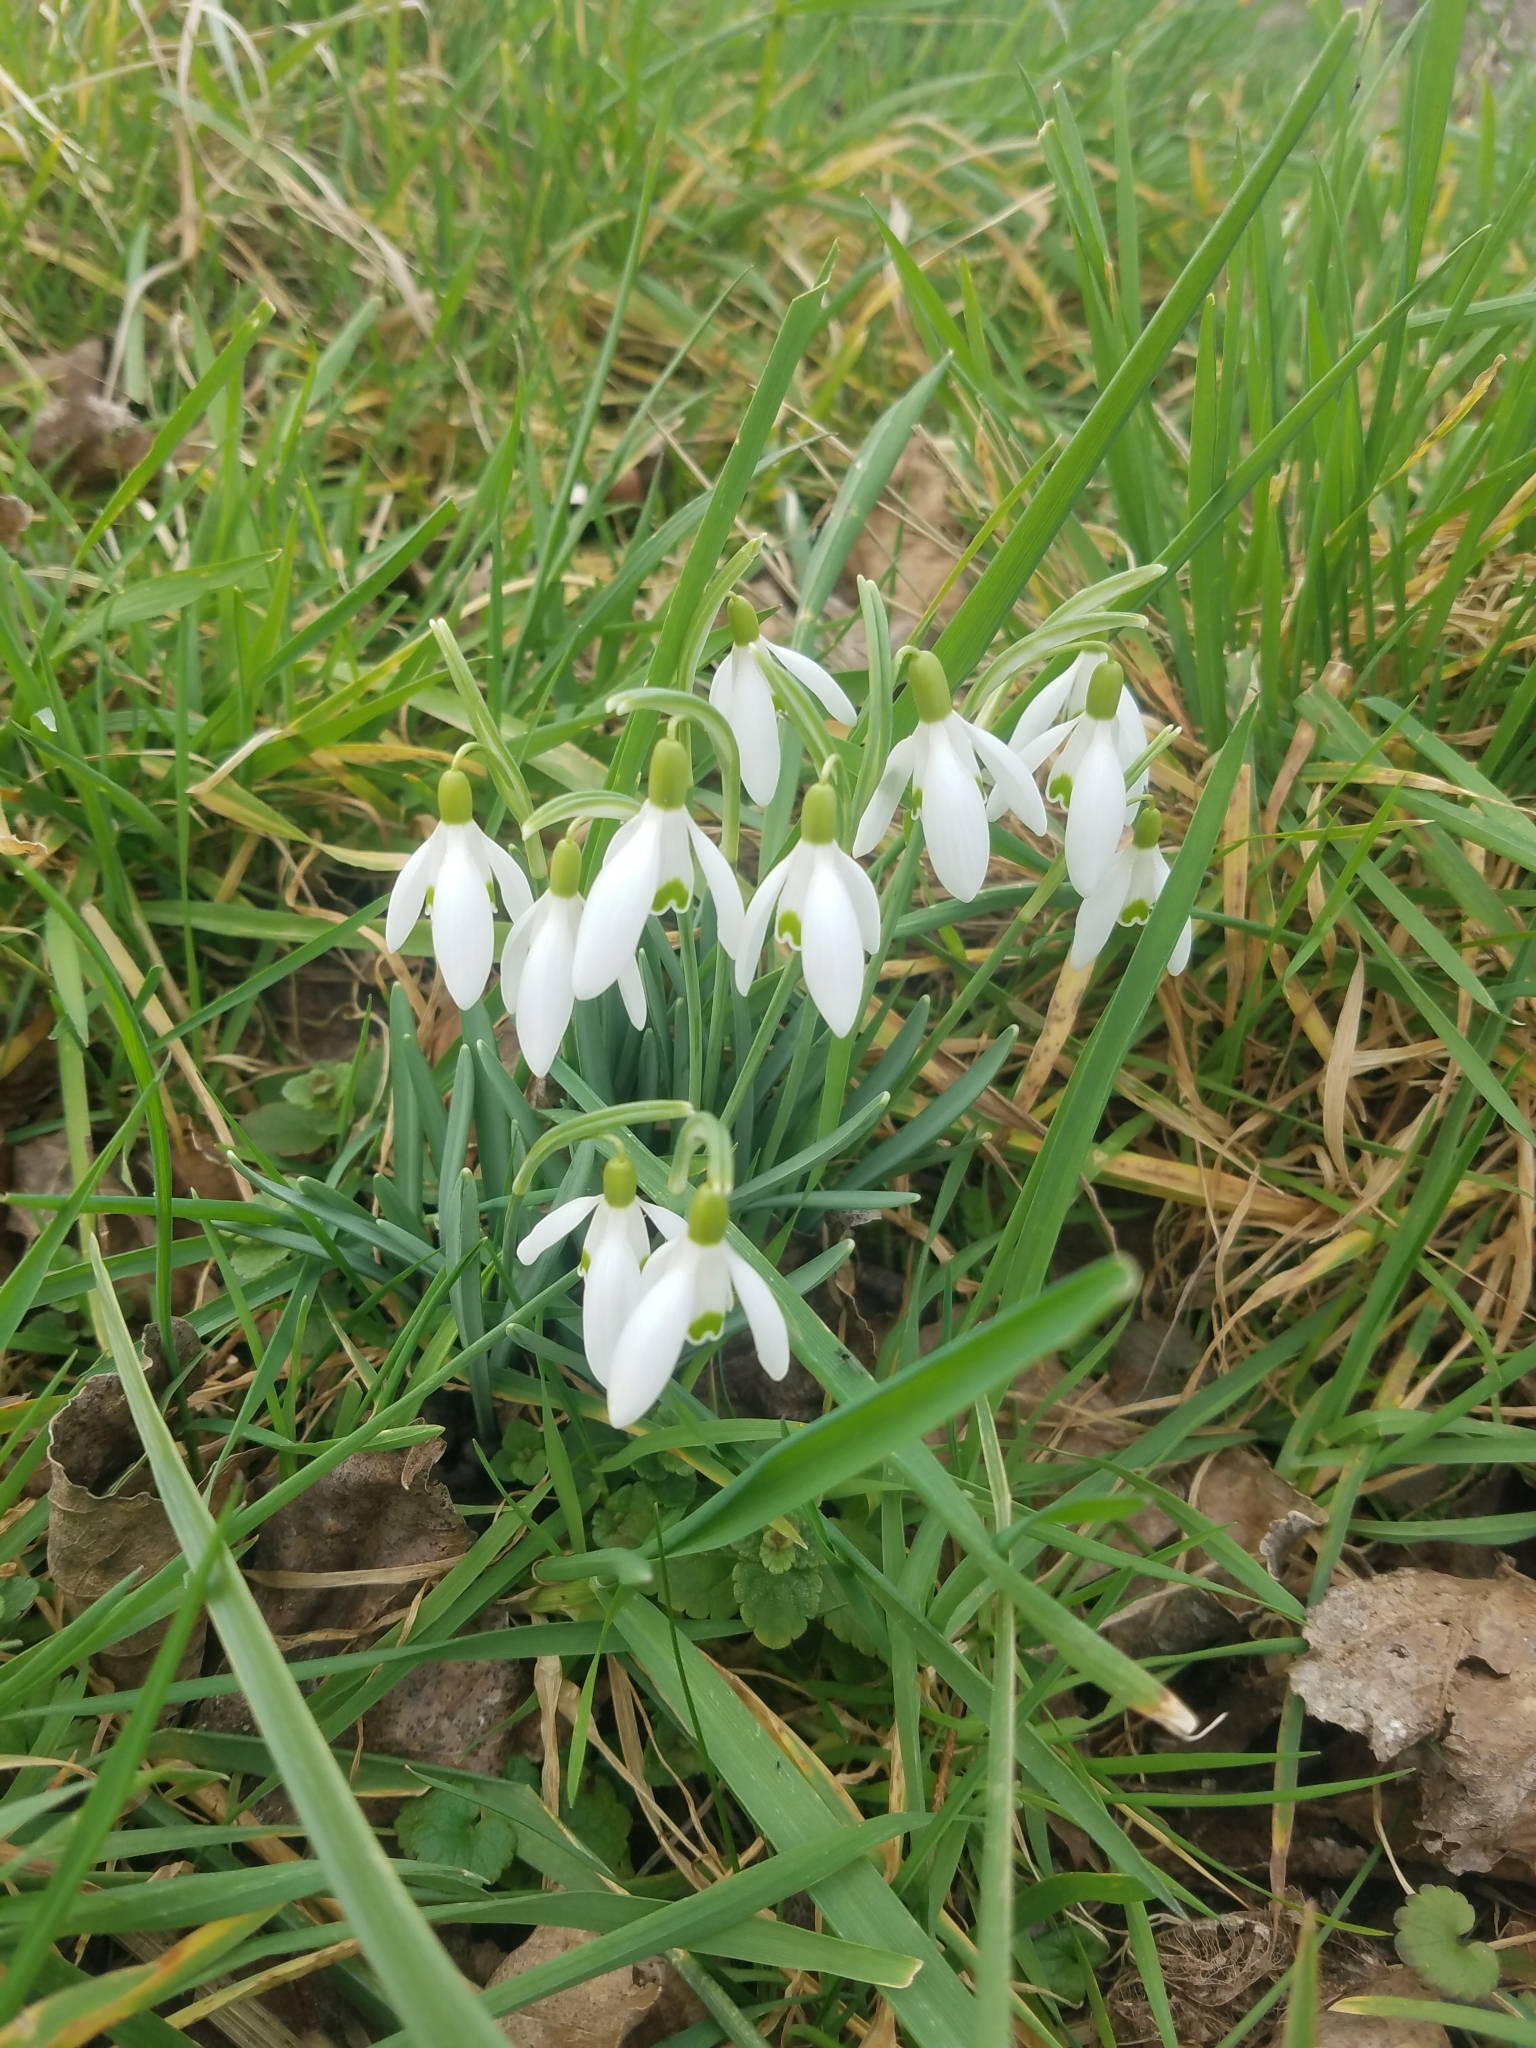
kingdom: Plantae
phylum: Tracheophyta
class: Liliopsida
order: Asparagales
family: Amaryllidaceae
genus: Galanthus
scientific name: Galanthus nivalis
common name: Snowdrop
